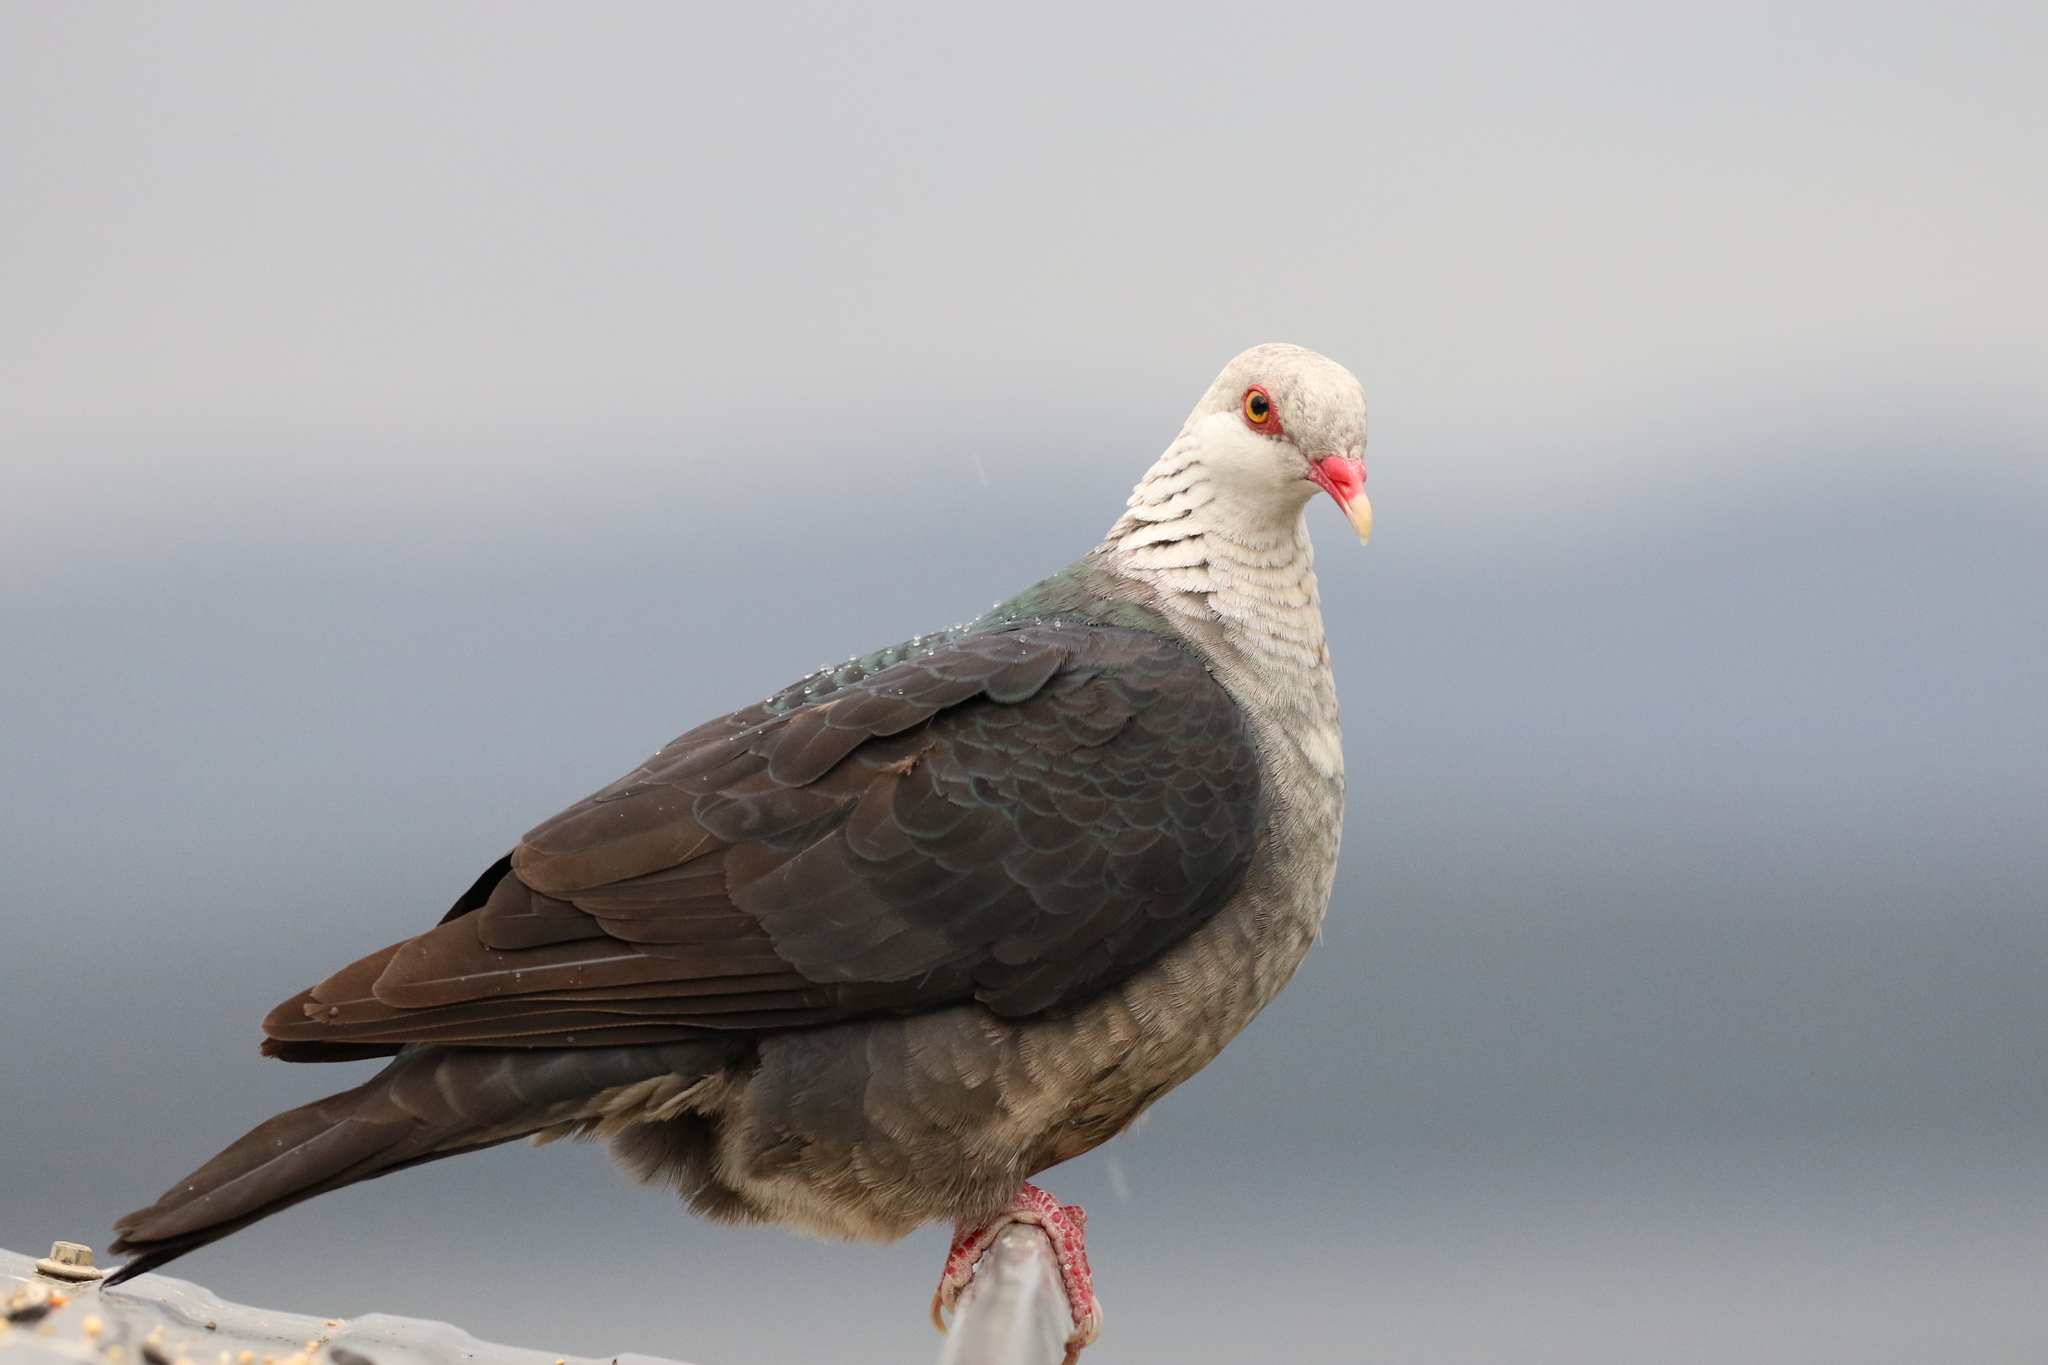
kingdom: Animalia
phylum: Chordata
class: Aves
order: Columbiformes
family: Columbidae
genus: Columba
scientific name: Columba leucomela
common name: White-headed pigeon
